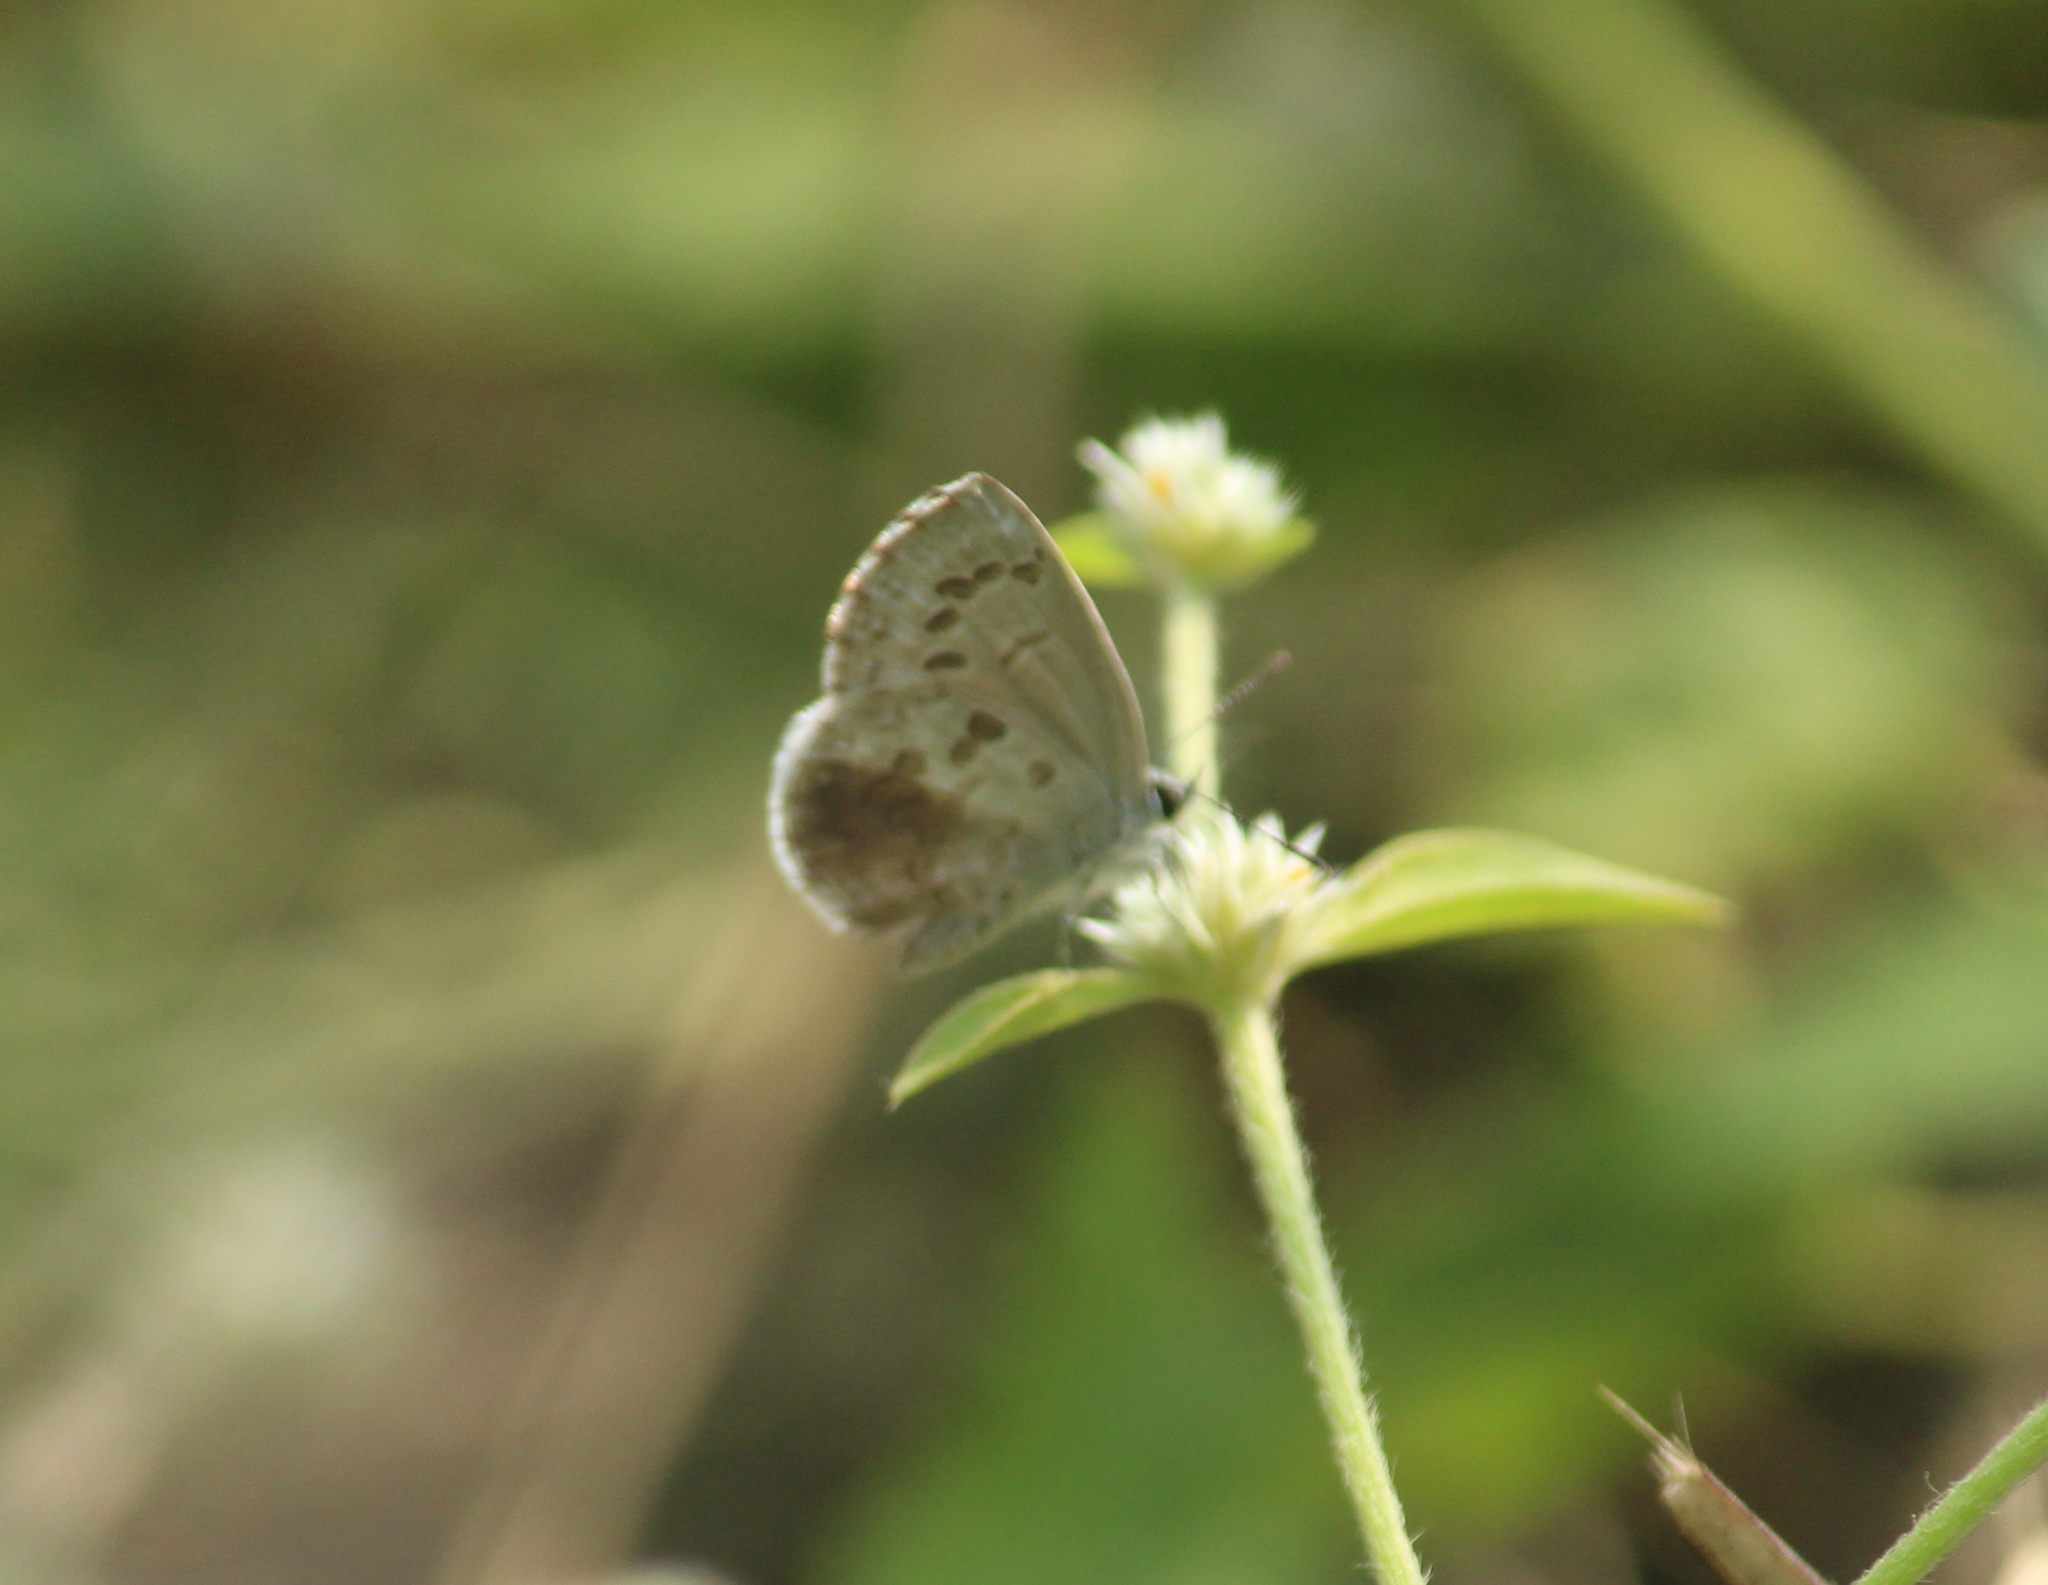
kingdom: Animalia
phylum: Arthropoda
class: Insecta
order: Lepidoptera
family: Lycaenidae
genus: Chilades
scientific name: Chilades laius
